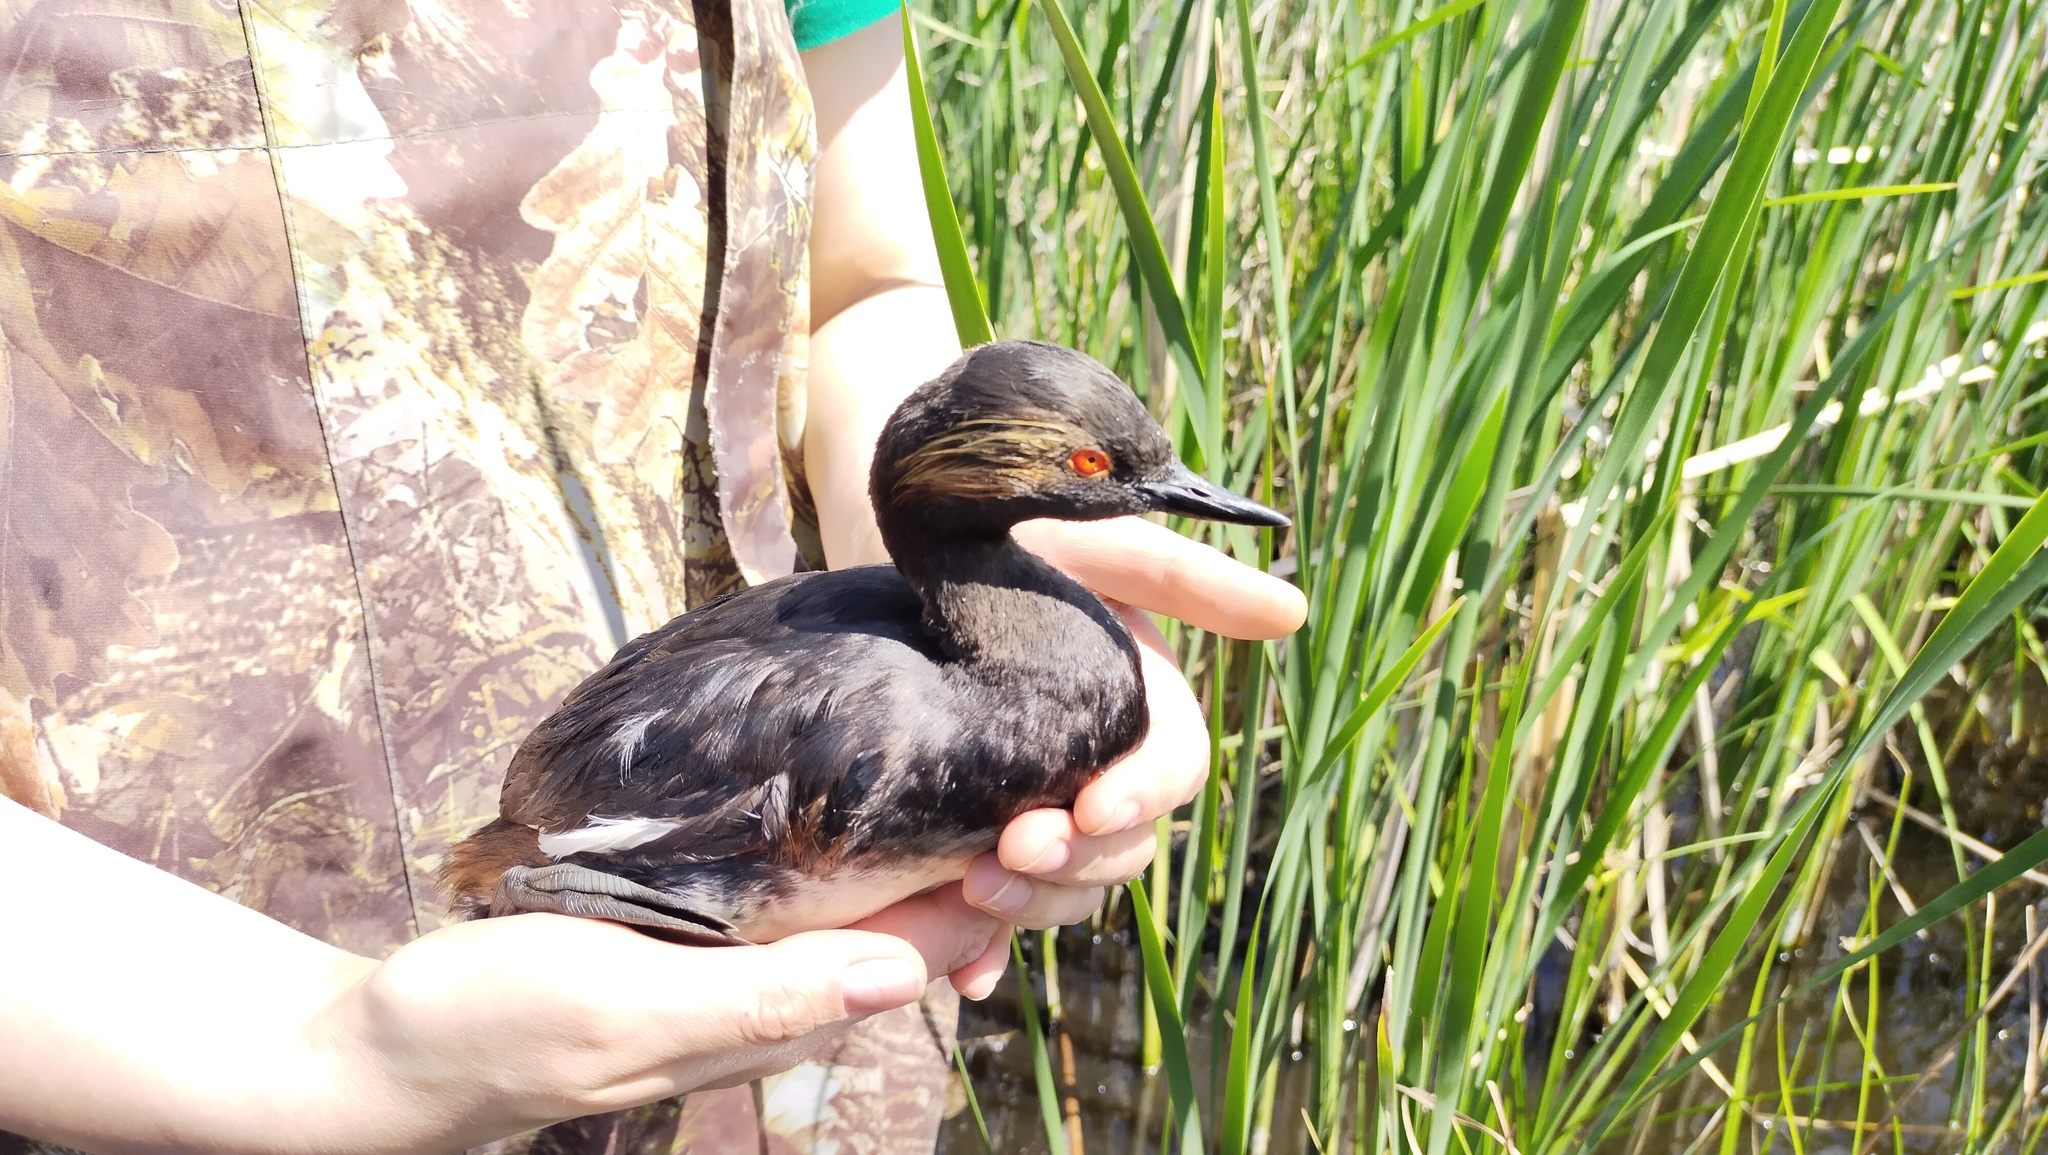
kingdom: Animalia
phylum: Chordata
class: Aves
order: Podicipediformes
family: Podicipedidae
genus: Podiceps
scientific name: Podiceps nigricollis
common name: Black-necked grebe
